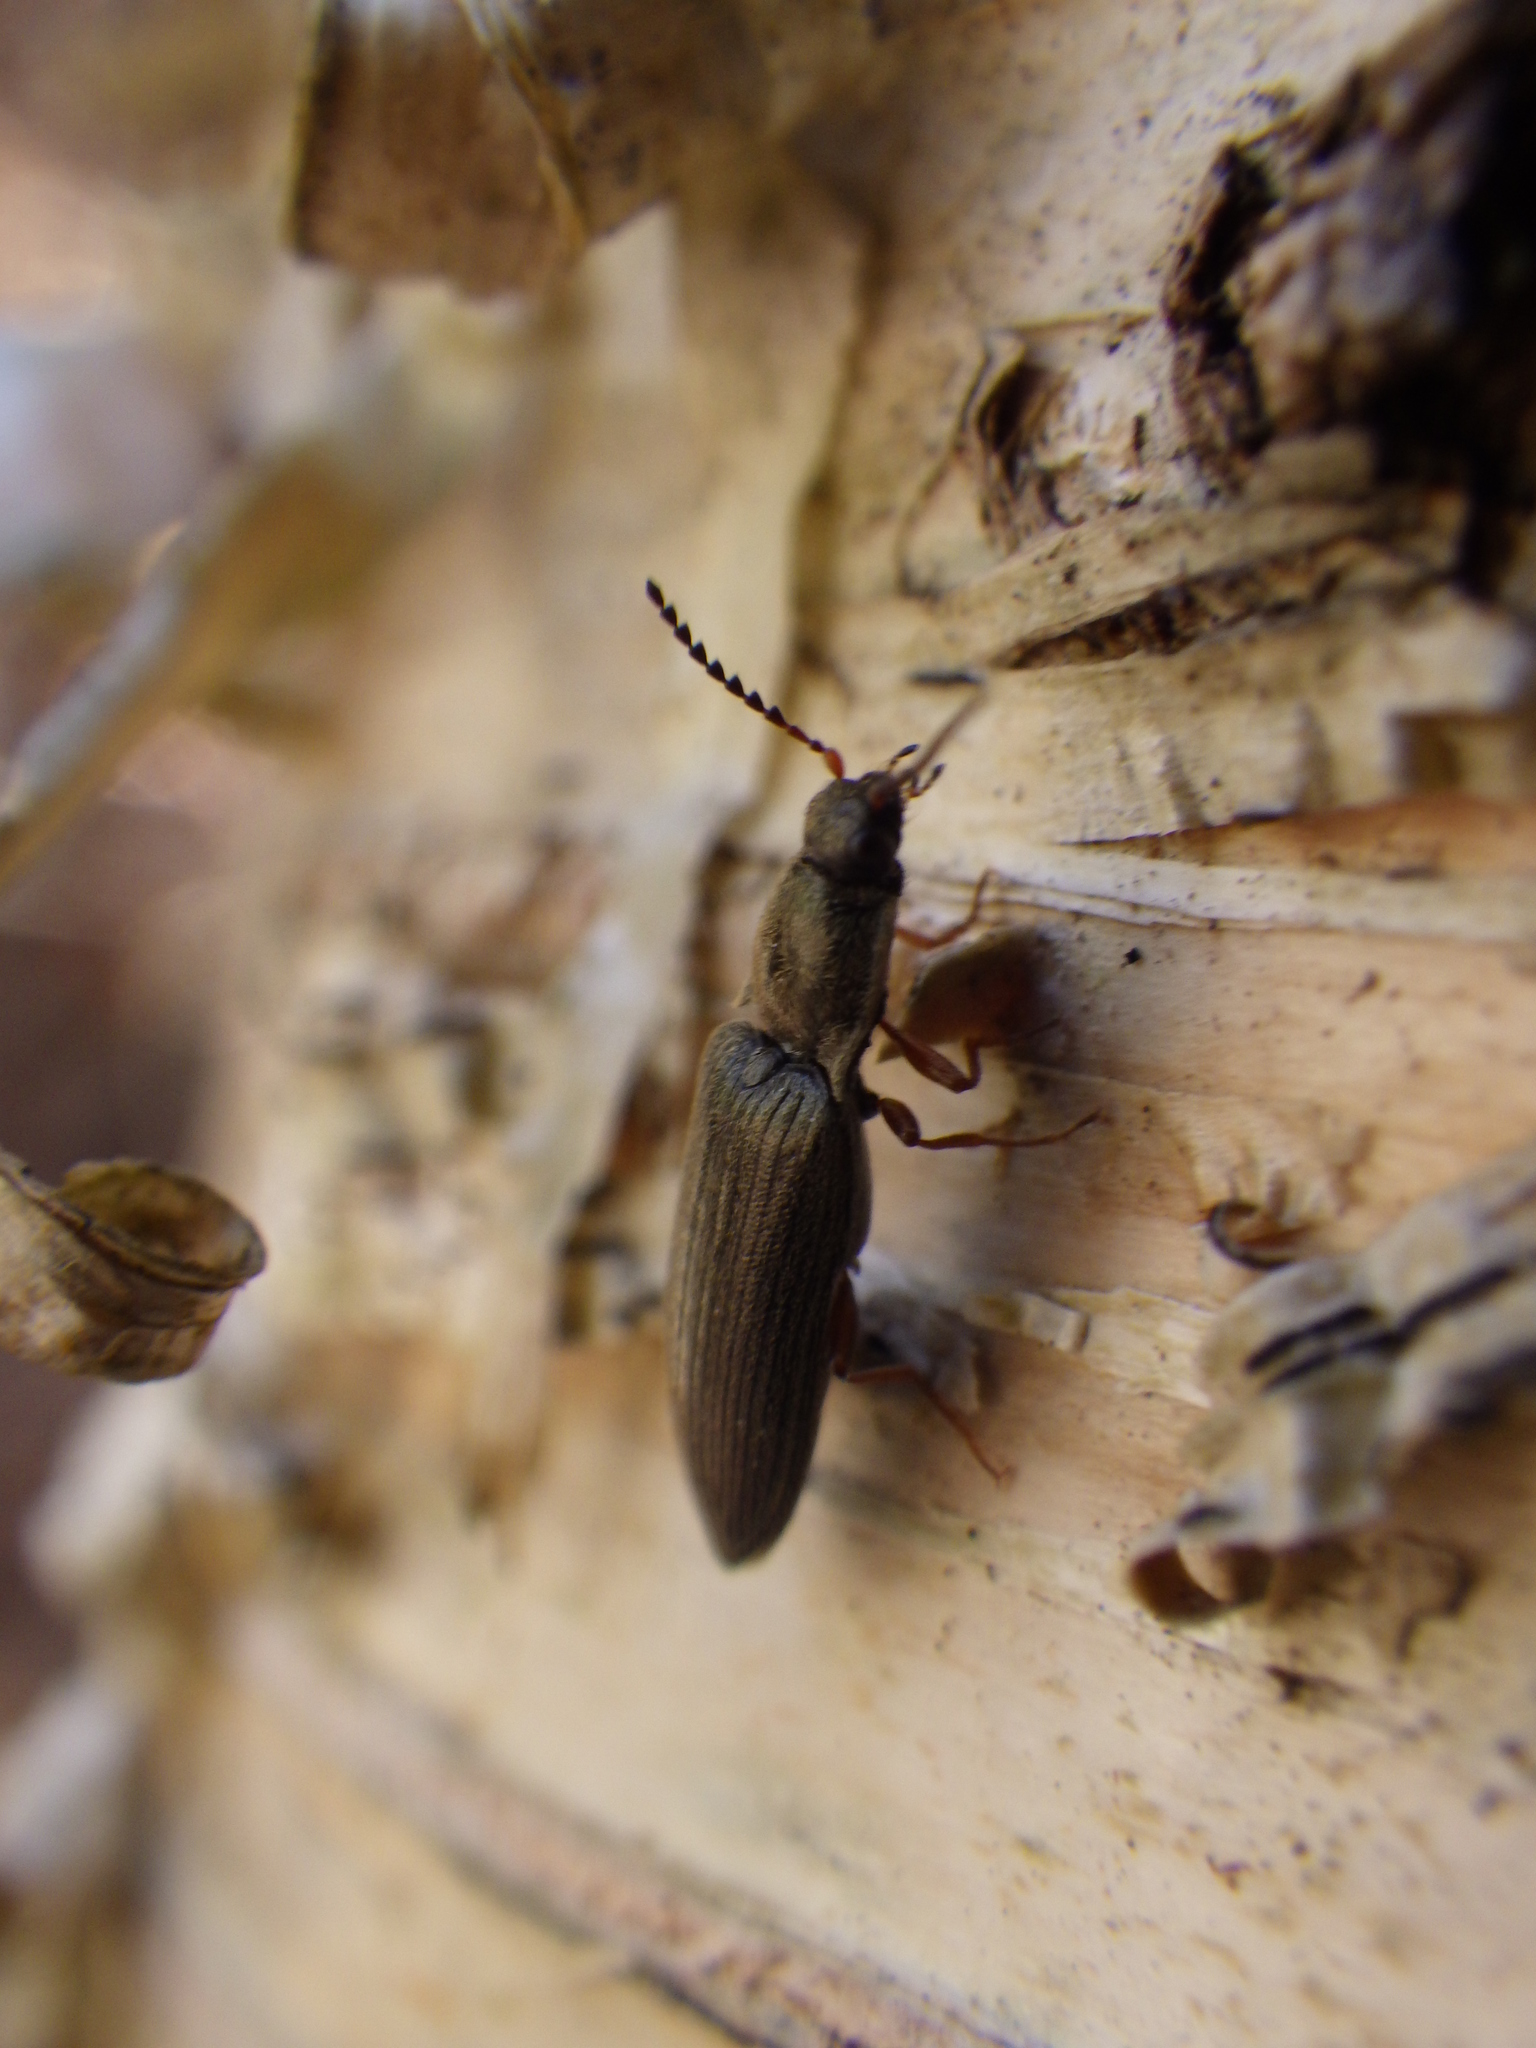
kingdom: Animalia
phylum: Arthropoda
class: Insecta
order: Coleoptera
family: Elateridae
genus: Sylvanelater
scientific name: Sylvanelater cylindriformis
